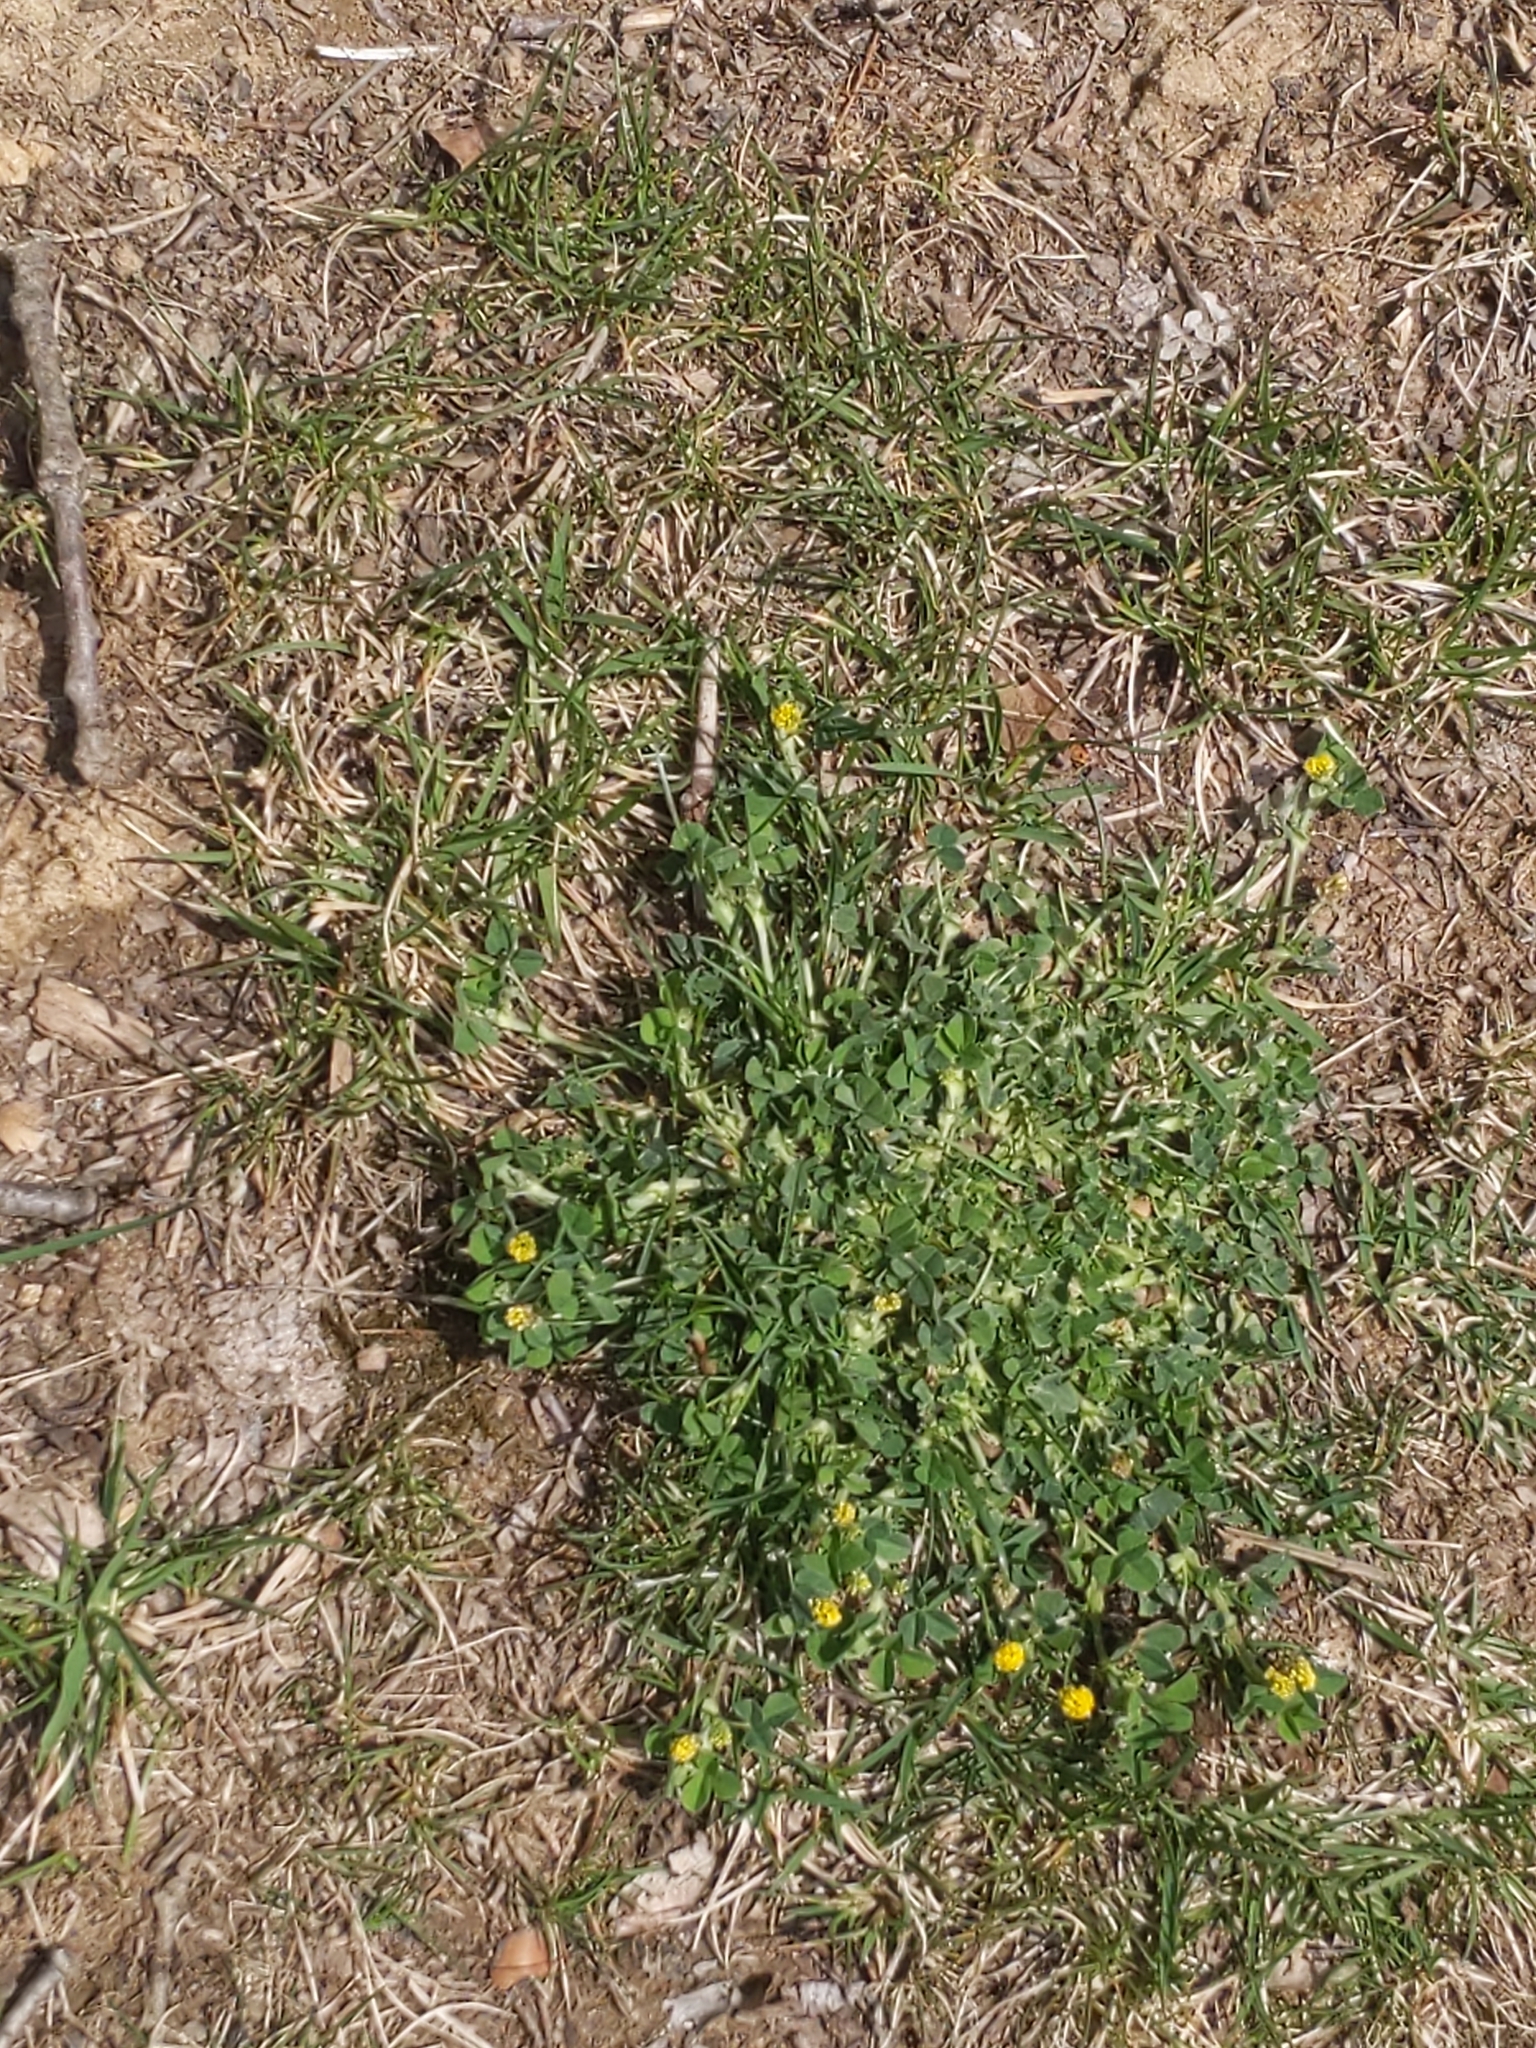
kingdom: Plantae
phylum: Tracheophyta
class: Magnoliopsida
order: Fabales
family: Fabaceae
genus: Medicago
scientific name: Medicago lupulina
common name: Black medick
